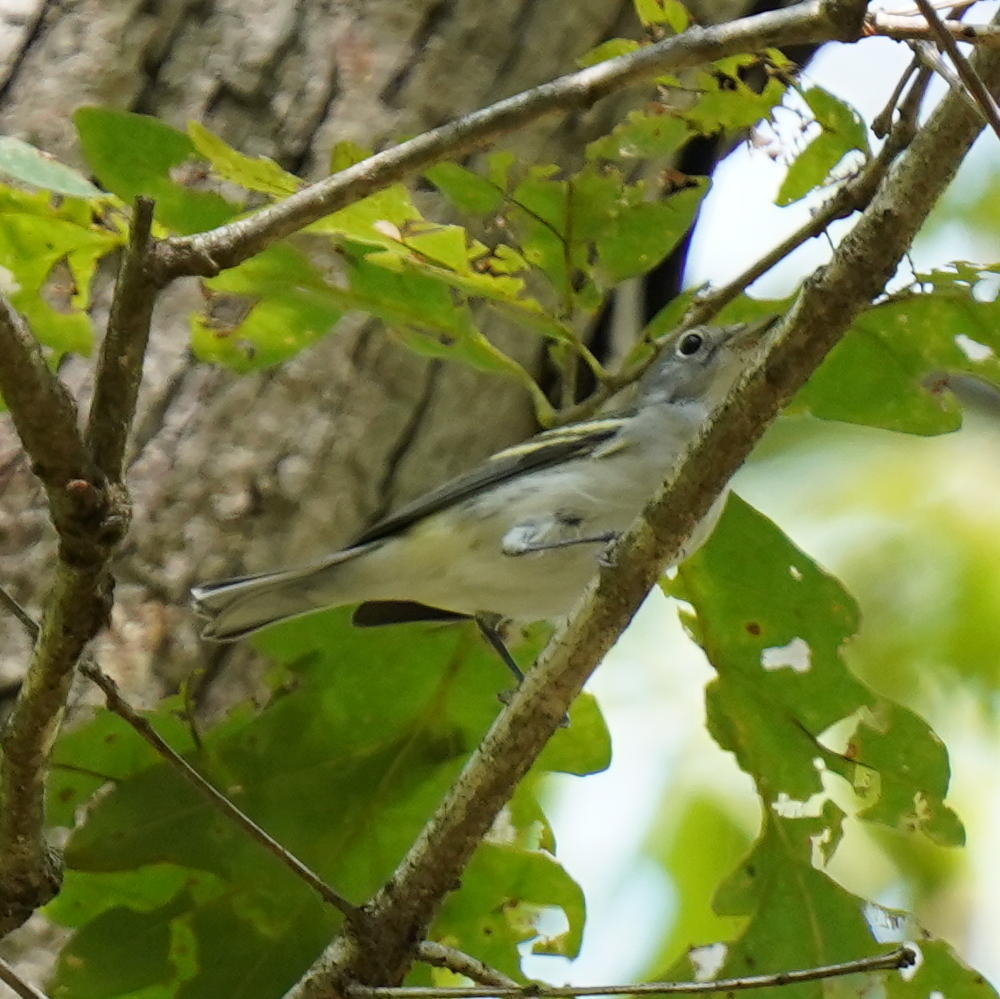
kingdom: Animalia
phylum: Chordata
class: Aves
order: Passeriformes
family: Parulidae
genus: Setophaga
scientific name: Setophaga pensylvanica
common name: Chestnut-sided warbler
